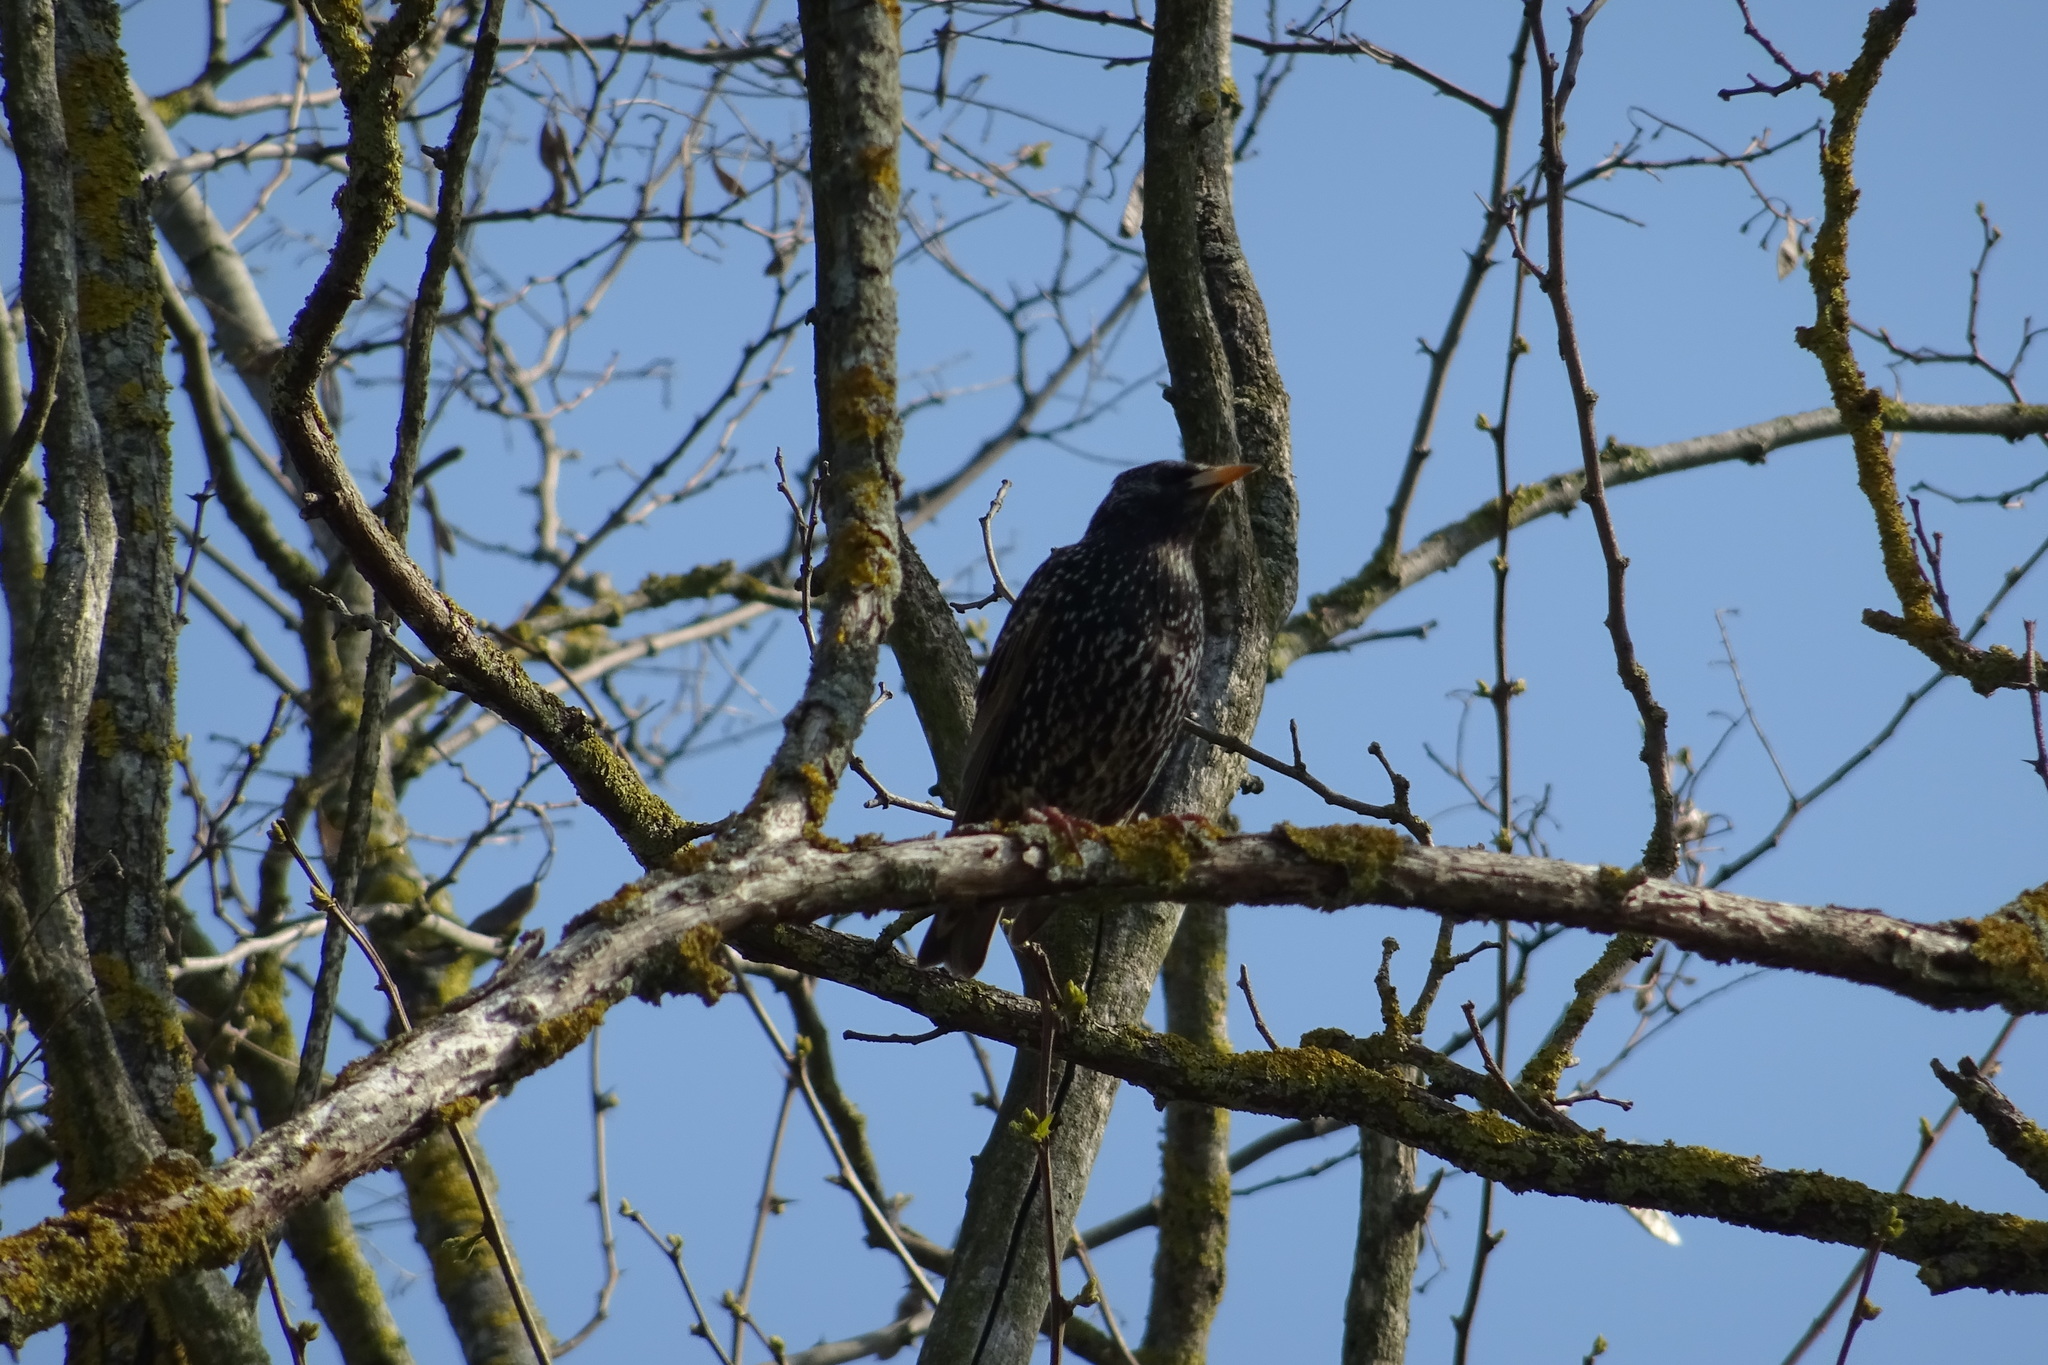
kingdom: Animalia
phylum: Chordata
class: Aves
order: Passeriformes
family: Sturnidae
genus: Sturnus
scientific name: Sturnus vulgaris
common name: Common starling
